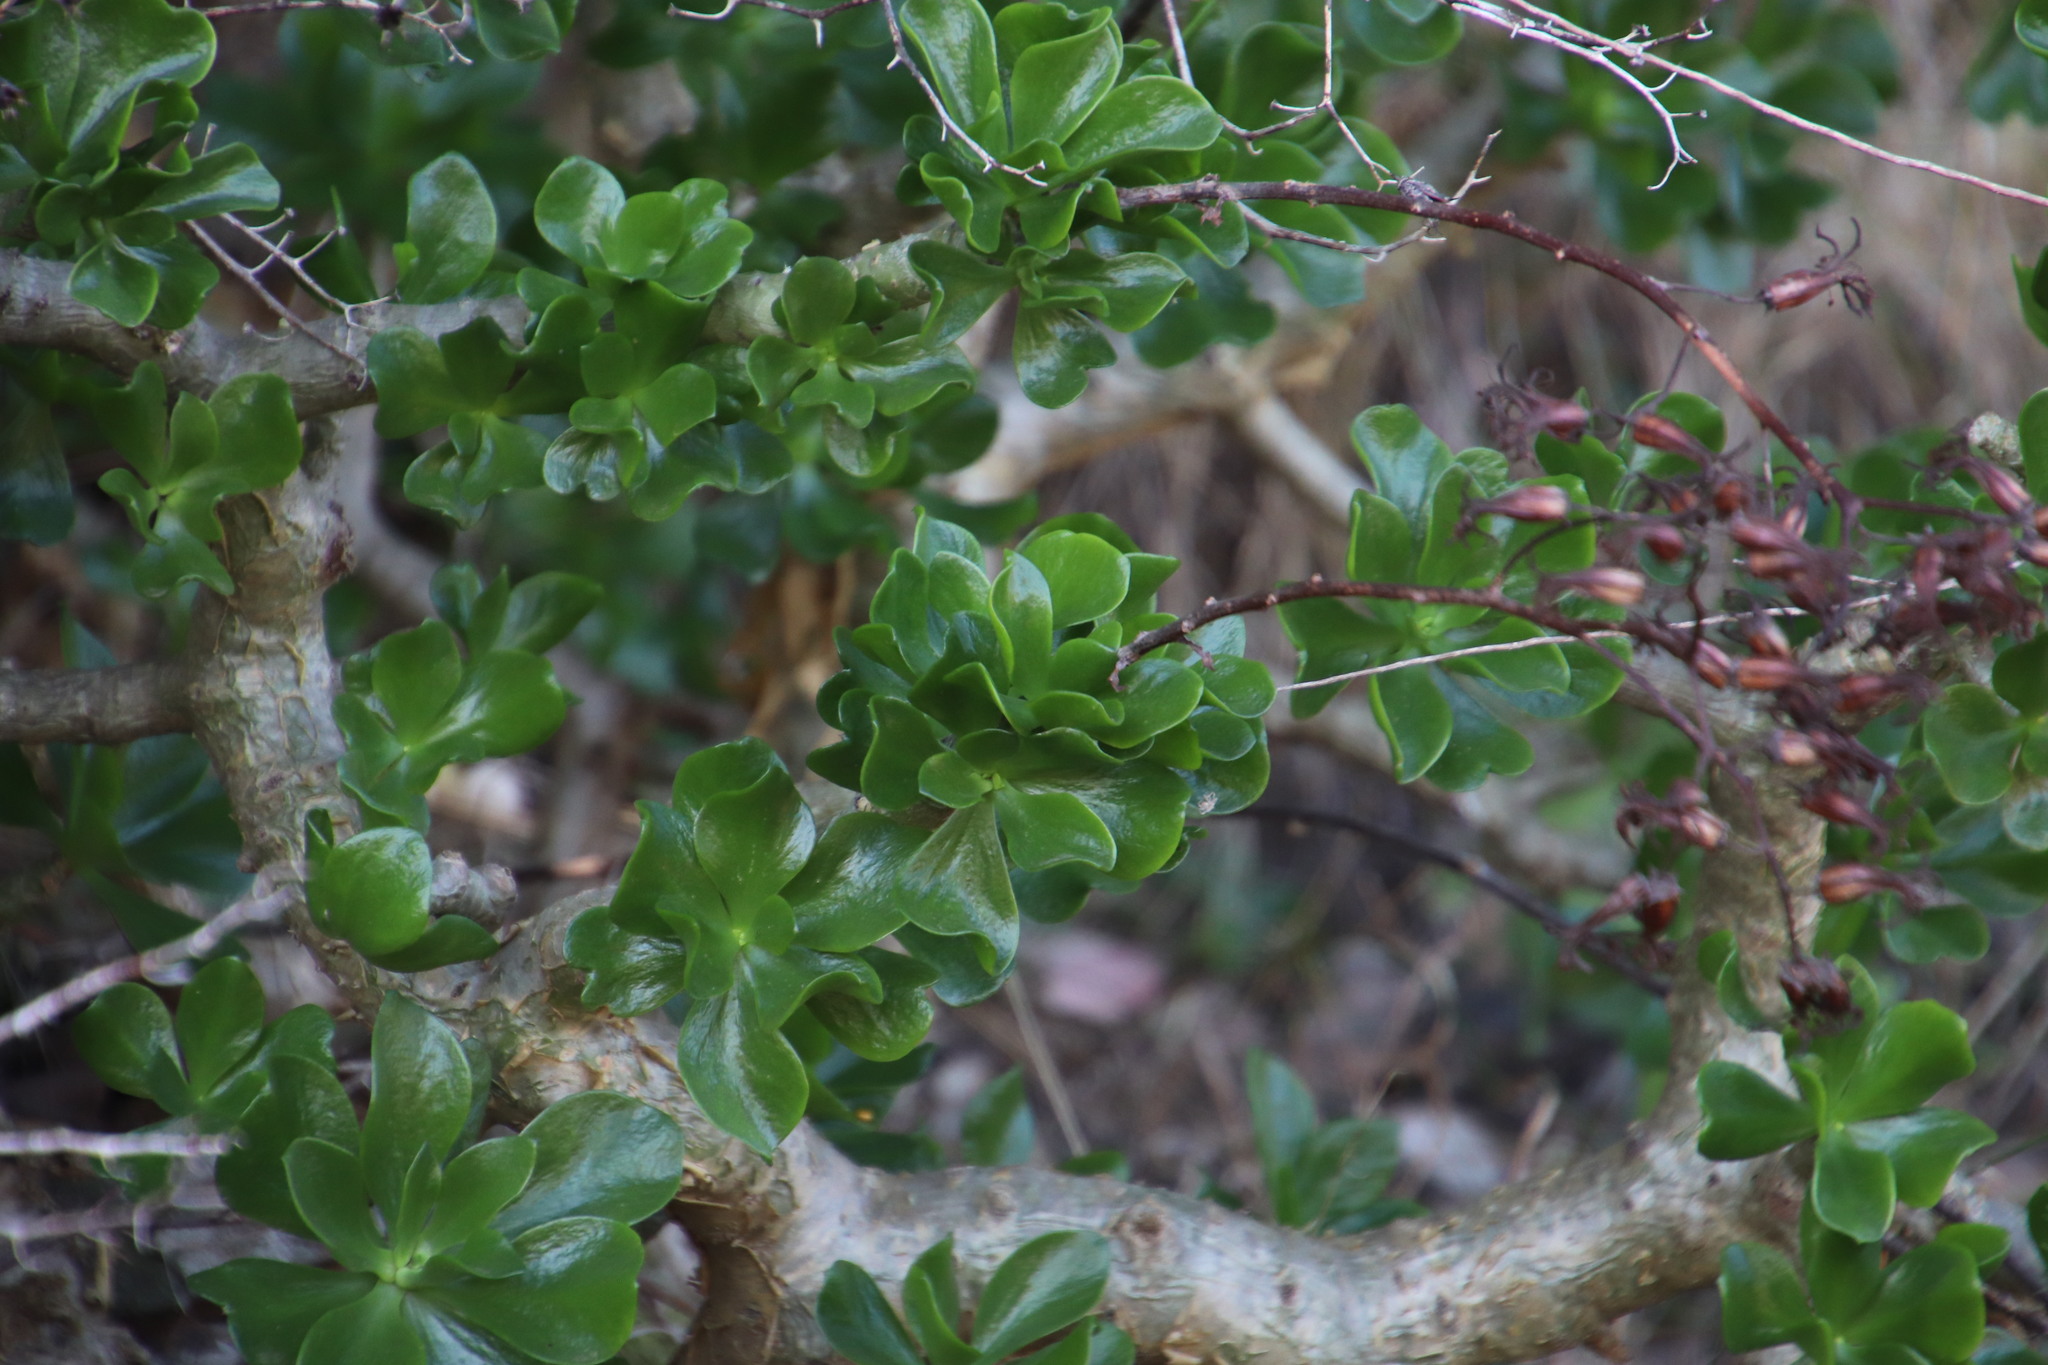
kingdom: Plantae
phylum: Tracheophyta
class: Magnoliopsida
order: Saxifragales
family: Crassulaceae
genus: Tylecodon
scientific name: Tylecodon paniculatus
